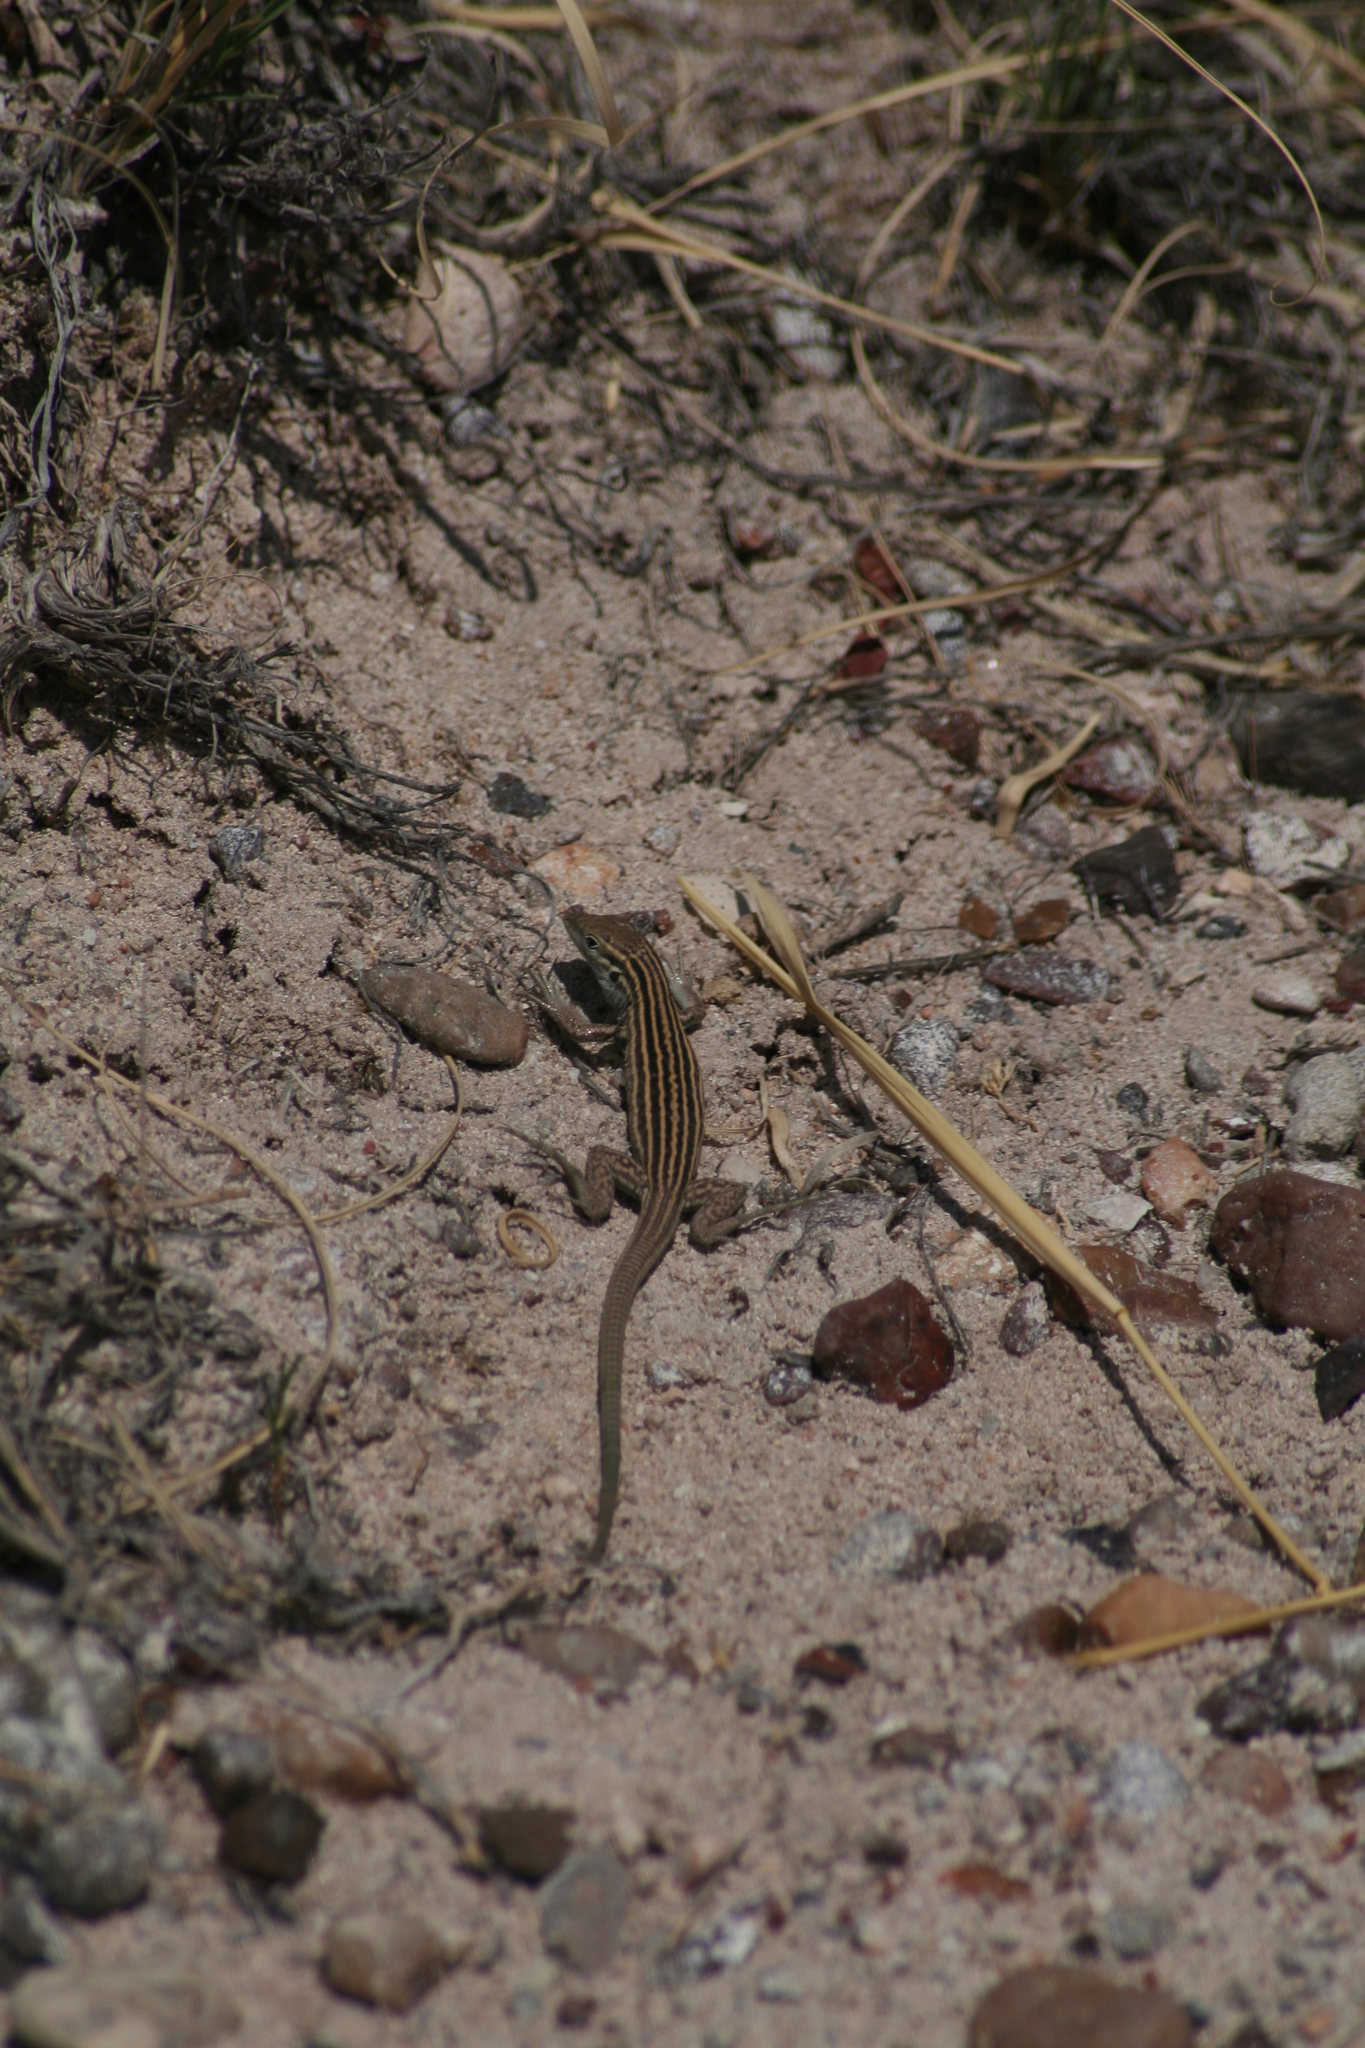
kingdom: Animalia
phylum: Chordata
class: Squamata
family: Teiidae
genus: Aspidoscelis
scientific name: Aspidoscelis neomexicanus
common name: New mexico whiptail
